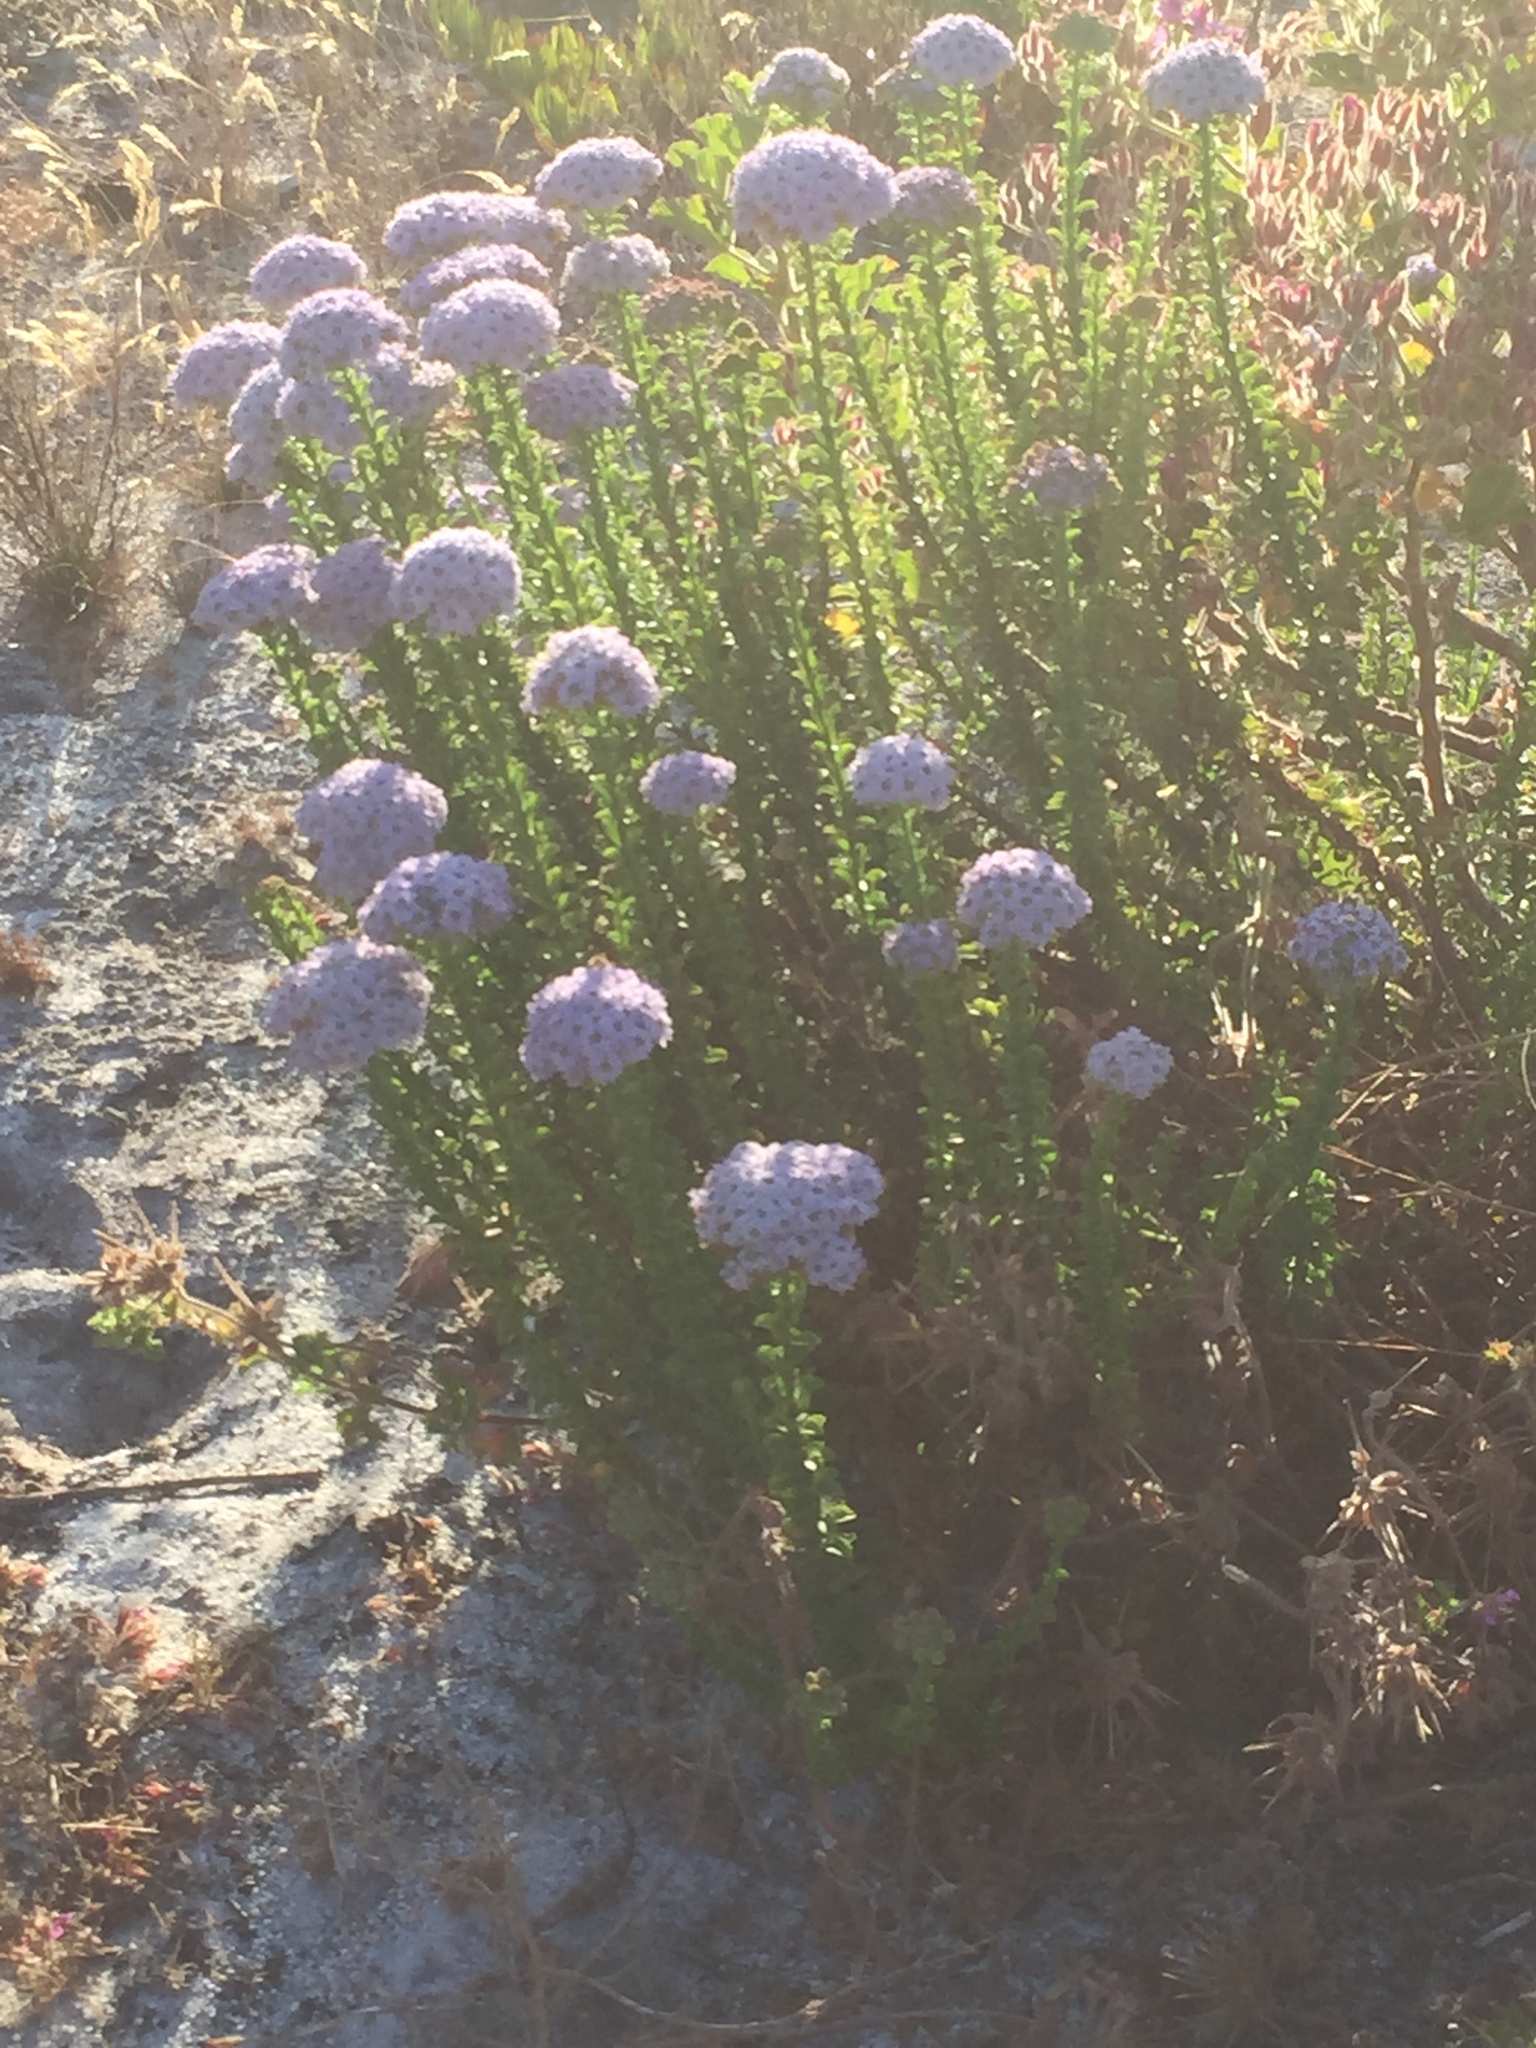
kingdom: Plantae
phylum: Tracheophyta
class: Magnoliopsida
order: Lamiales
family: Scrophulariaceae
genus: Pseudoselago
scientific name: Pseudoselago serrata
